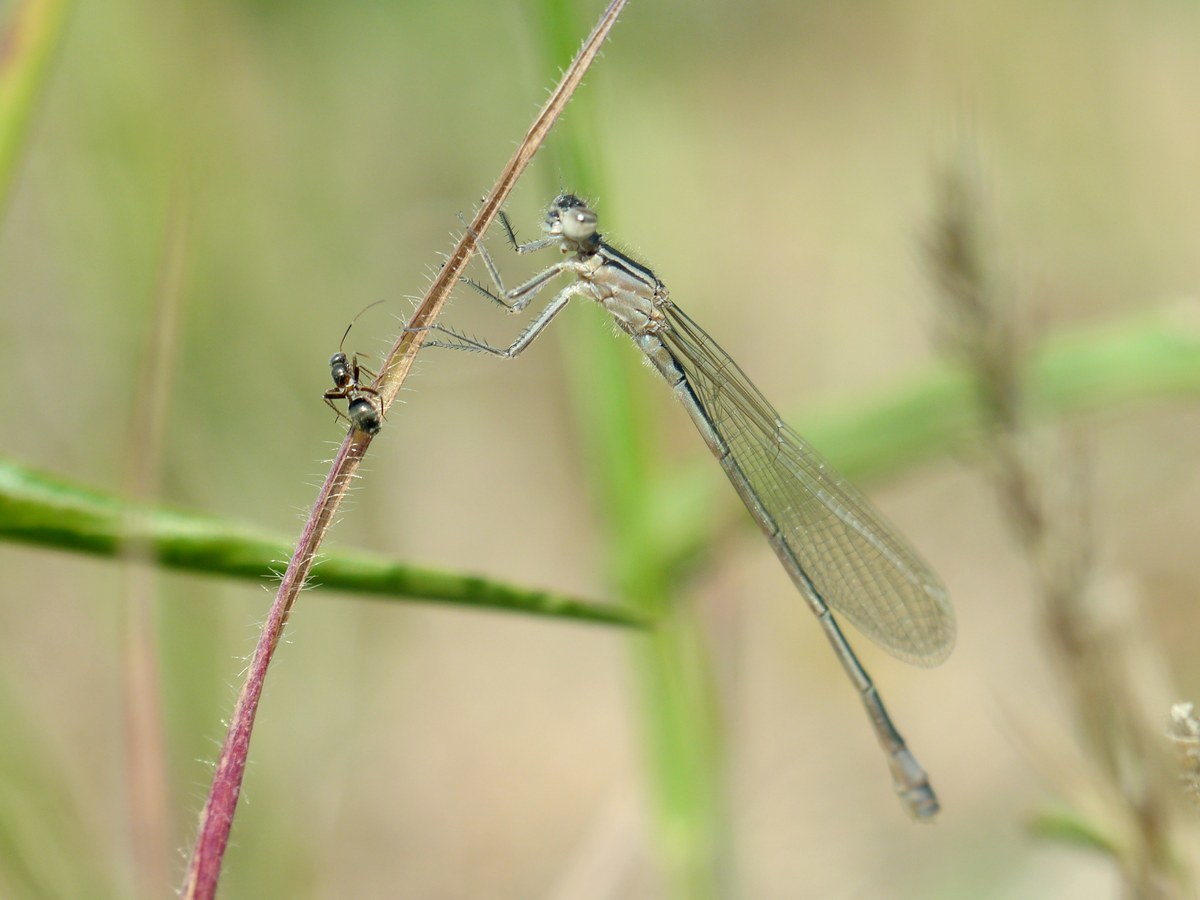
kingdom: Animalia
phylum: Arthropoda
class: Insecta
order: Odonata
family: Coenagrionidae
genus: Ischnura
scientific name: Ischnura elegans
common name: Blue-tailed damselfly
